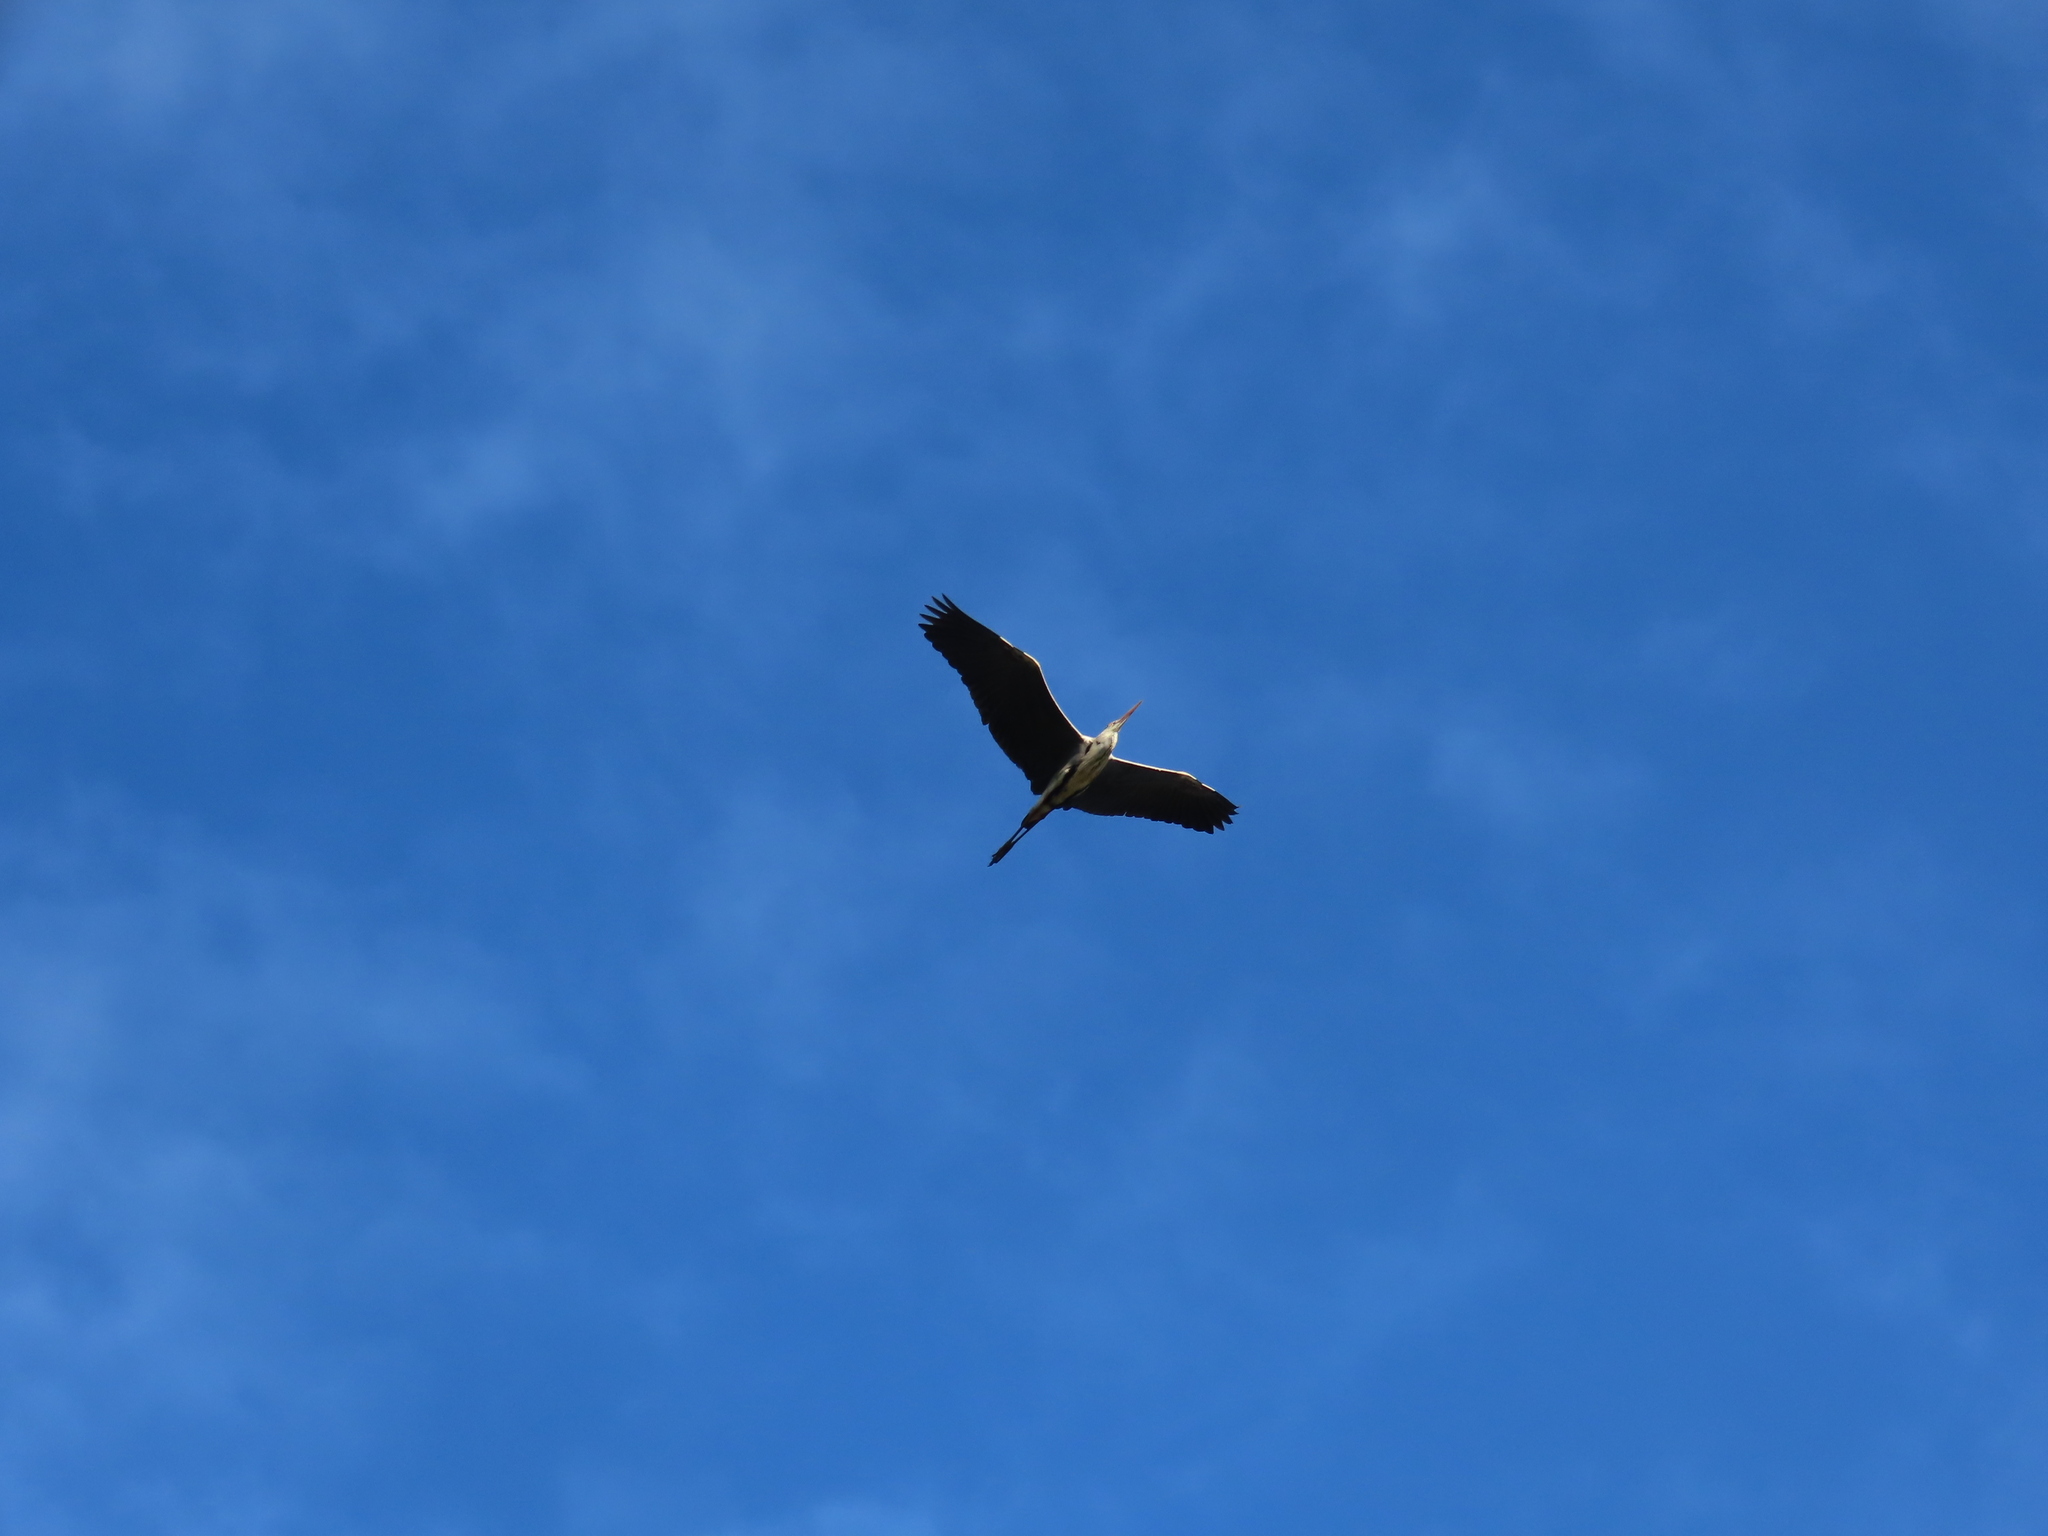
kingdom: Animalia
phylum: Chordata
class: Aves
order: Pelecaniformes
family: Ardeidae
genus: Ardea
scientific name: Ardea cinerea
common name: Grey heron
